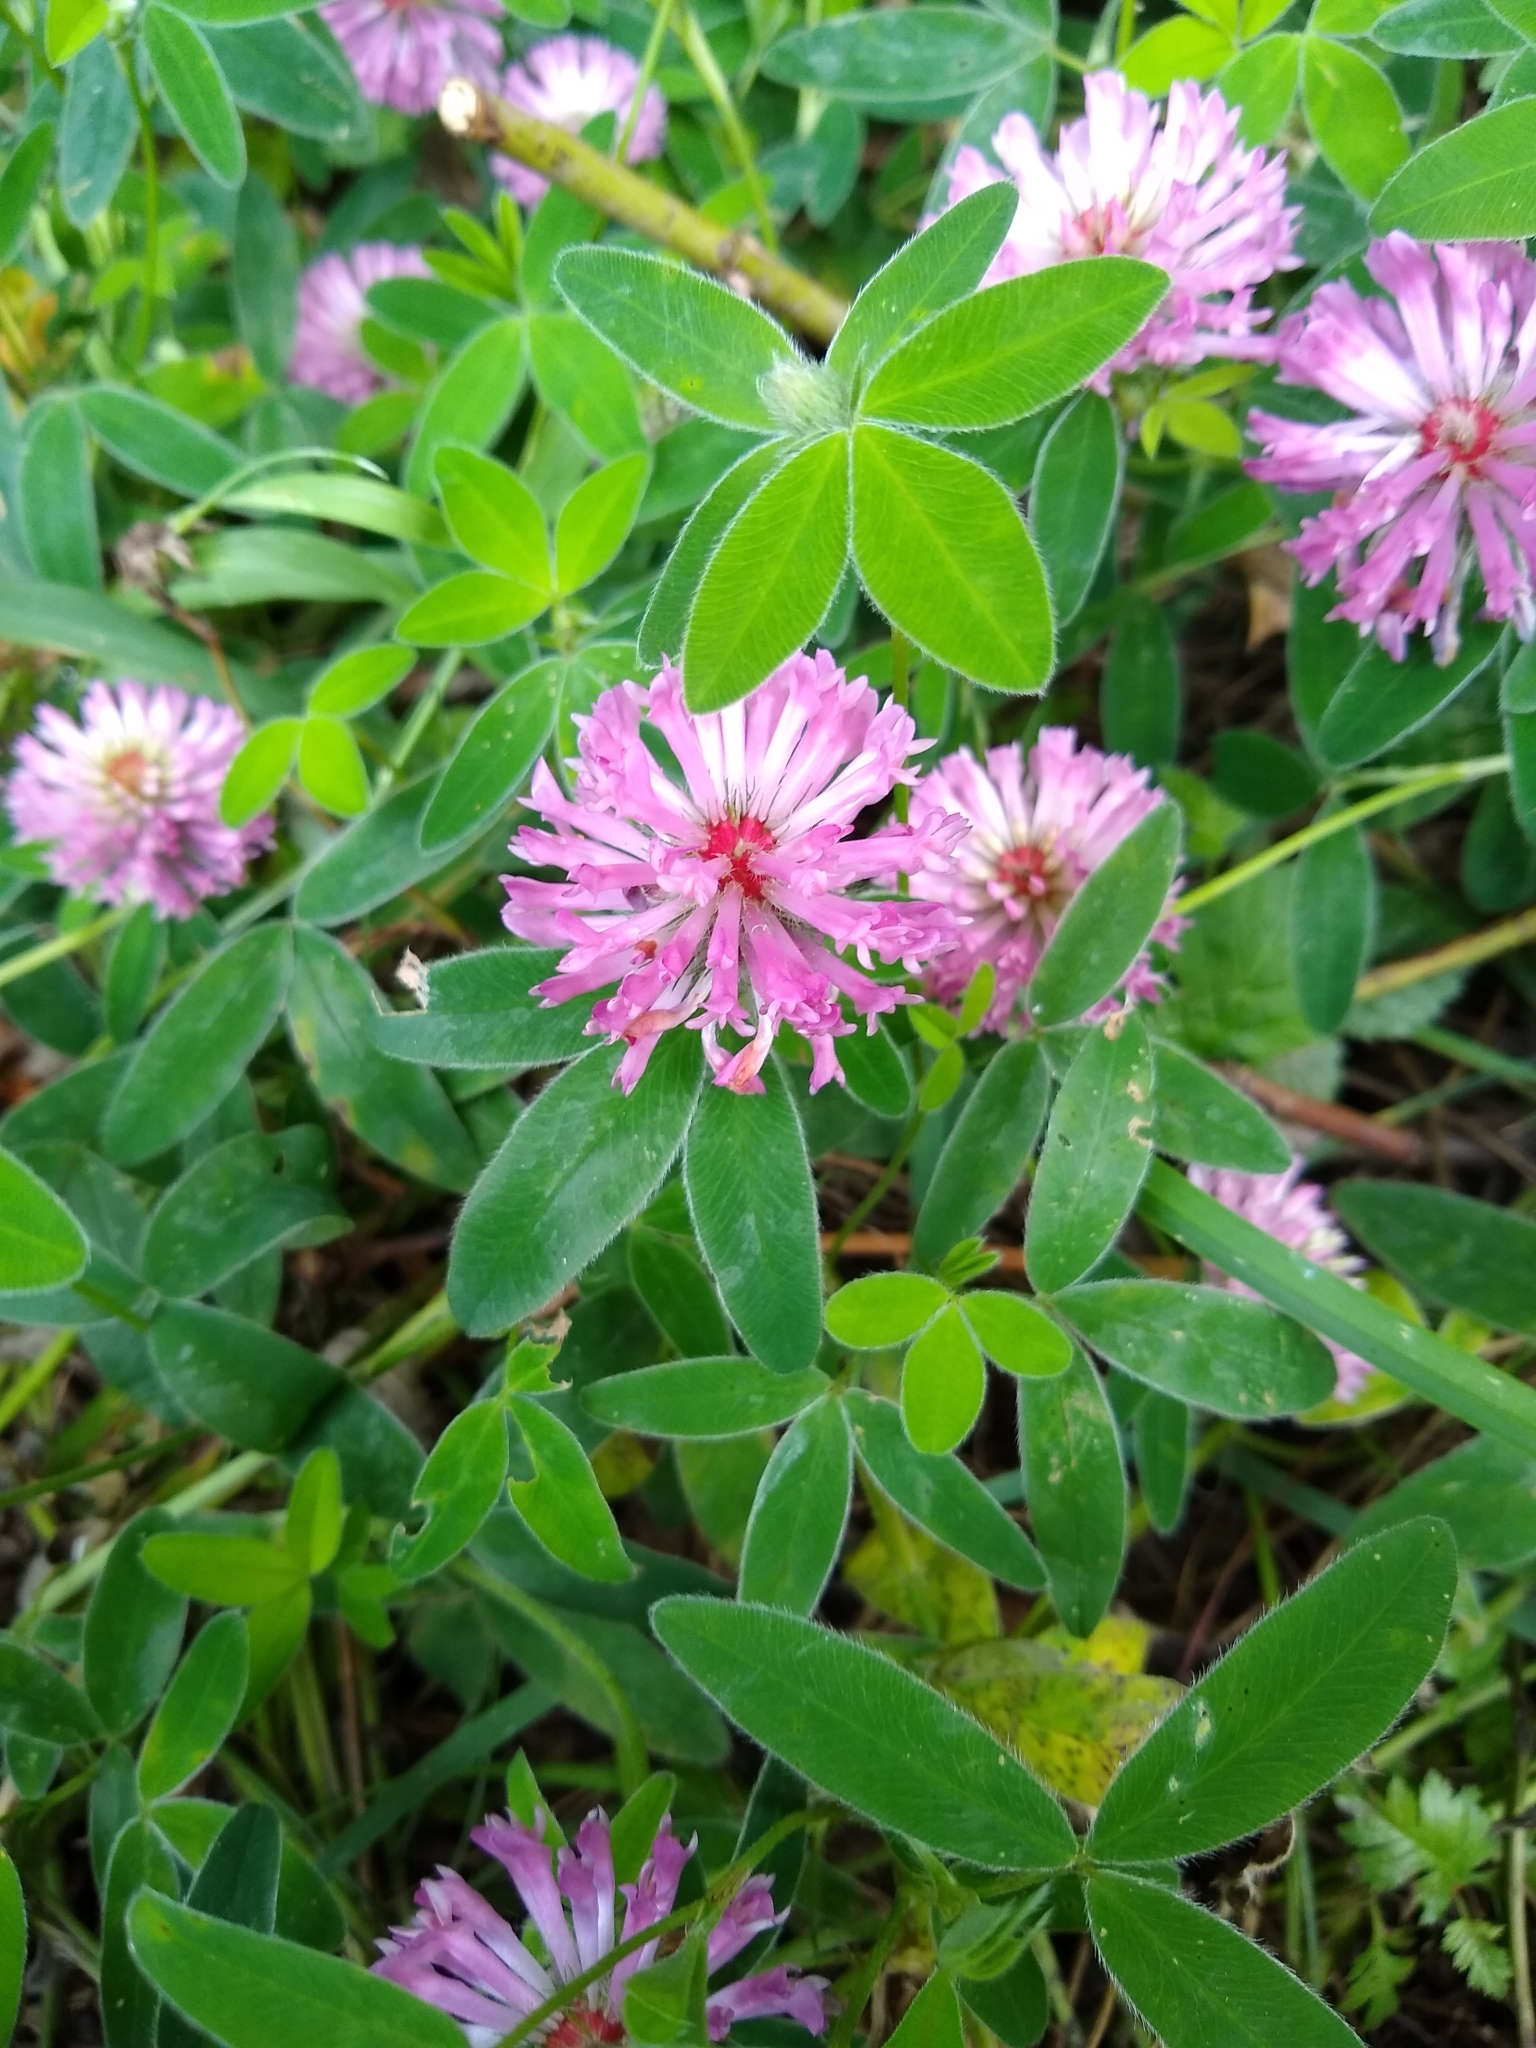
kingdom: Plantae
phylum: Tracheophyta
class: Magnoliopsida
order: Fabales
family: Fabaceae
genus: Trifolium
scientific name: Trifolium medium
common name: Zigzag clover
